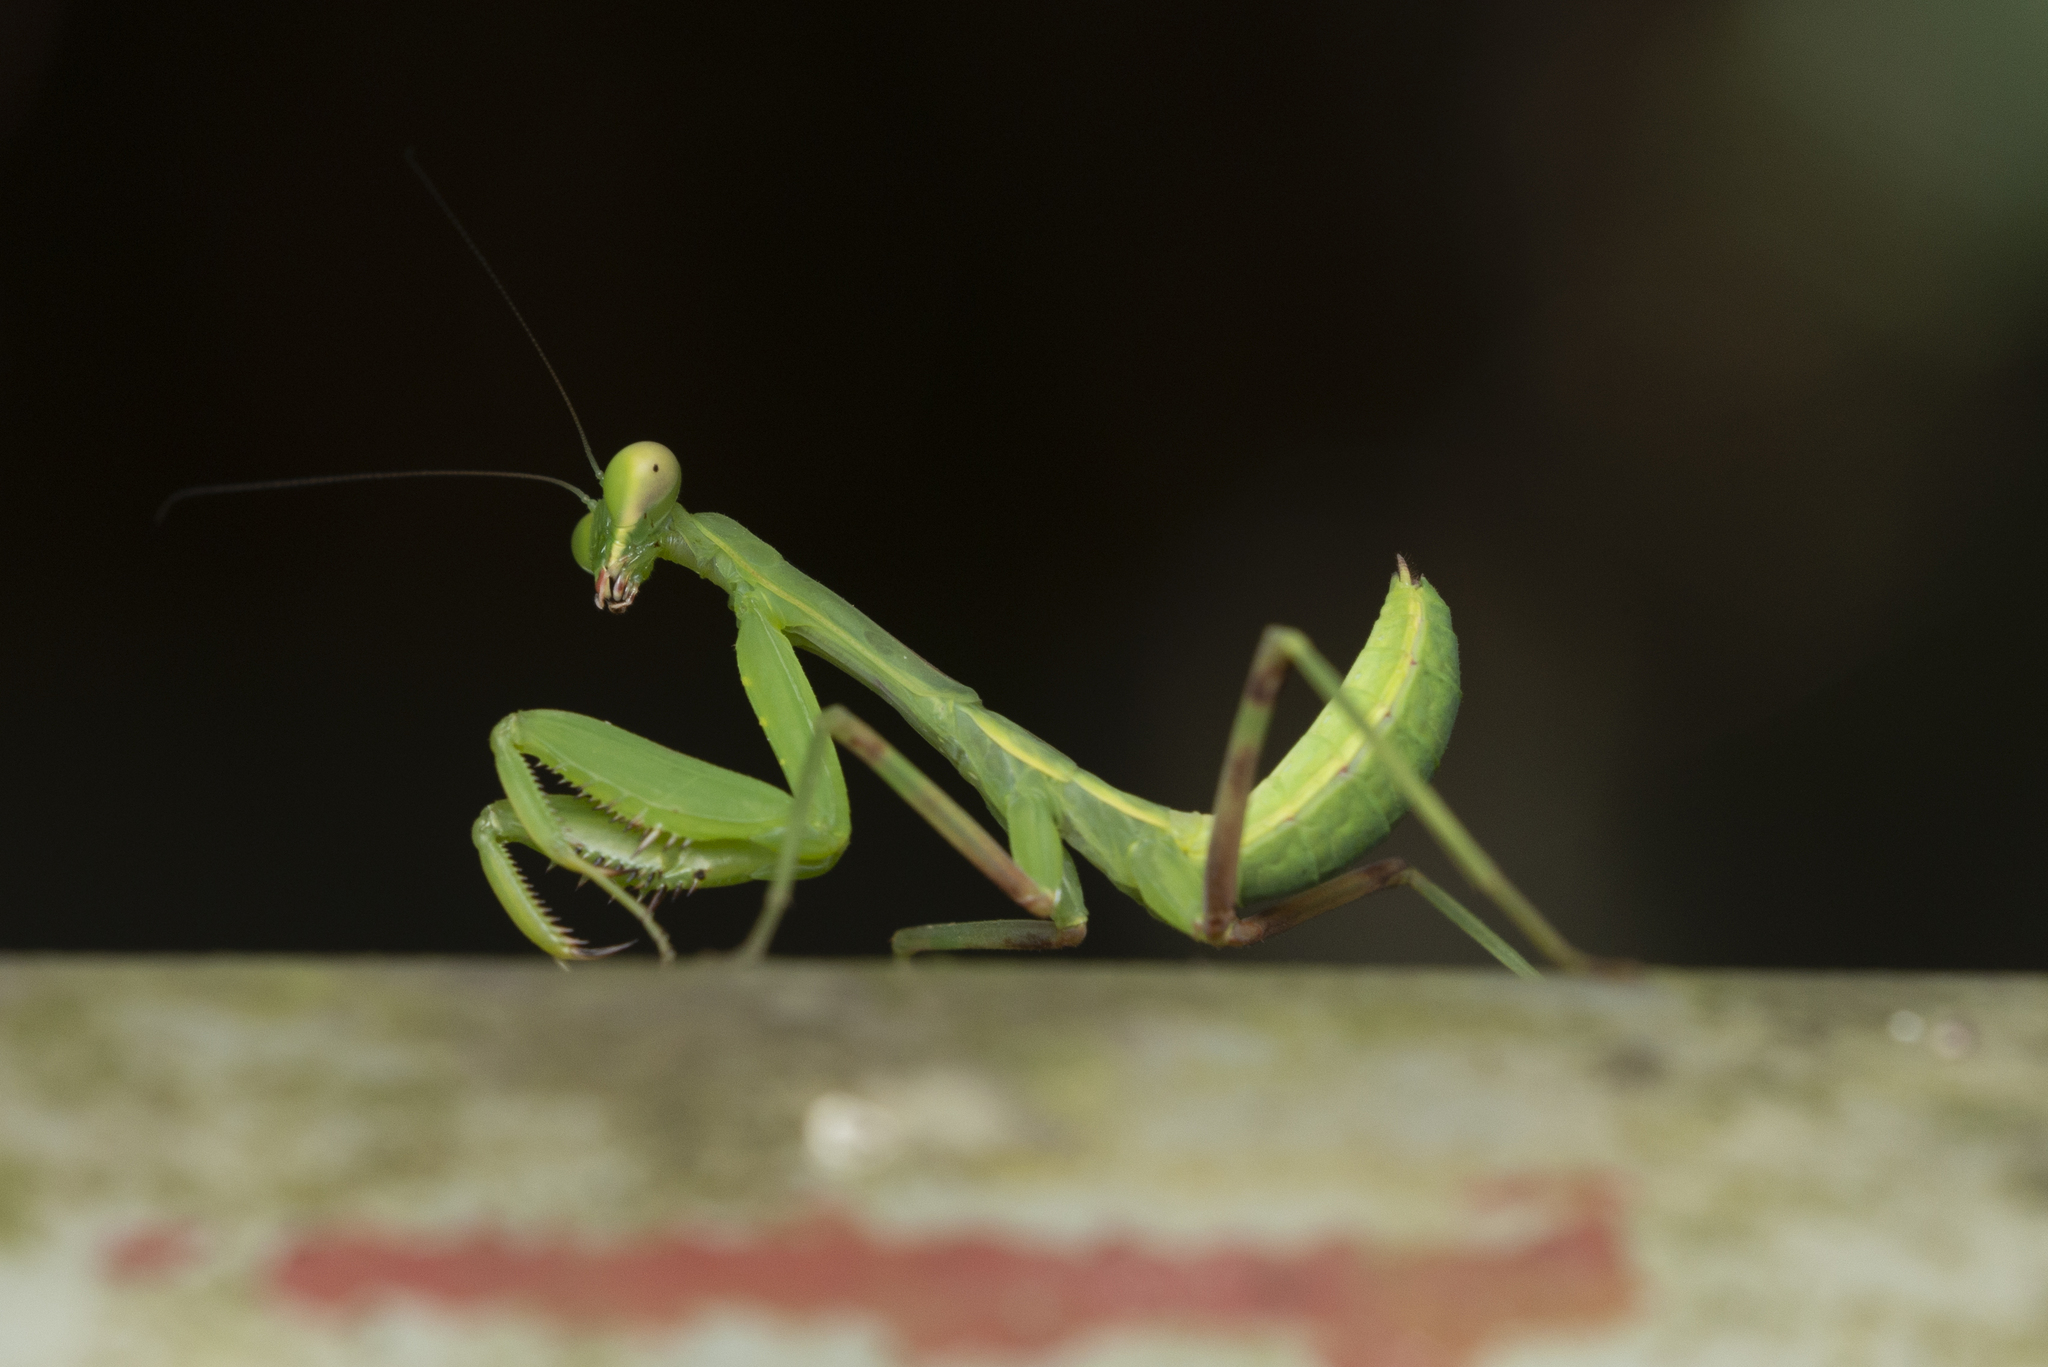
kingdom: Animalia
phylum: Arthropoda
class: Insecta
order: Mantodea
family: Mantidae
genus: Hierodula
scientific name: Hierodula patellifera
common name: Asian mantis
